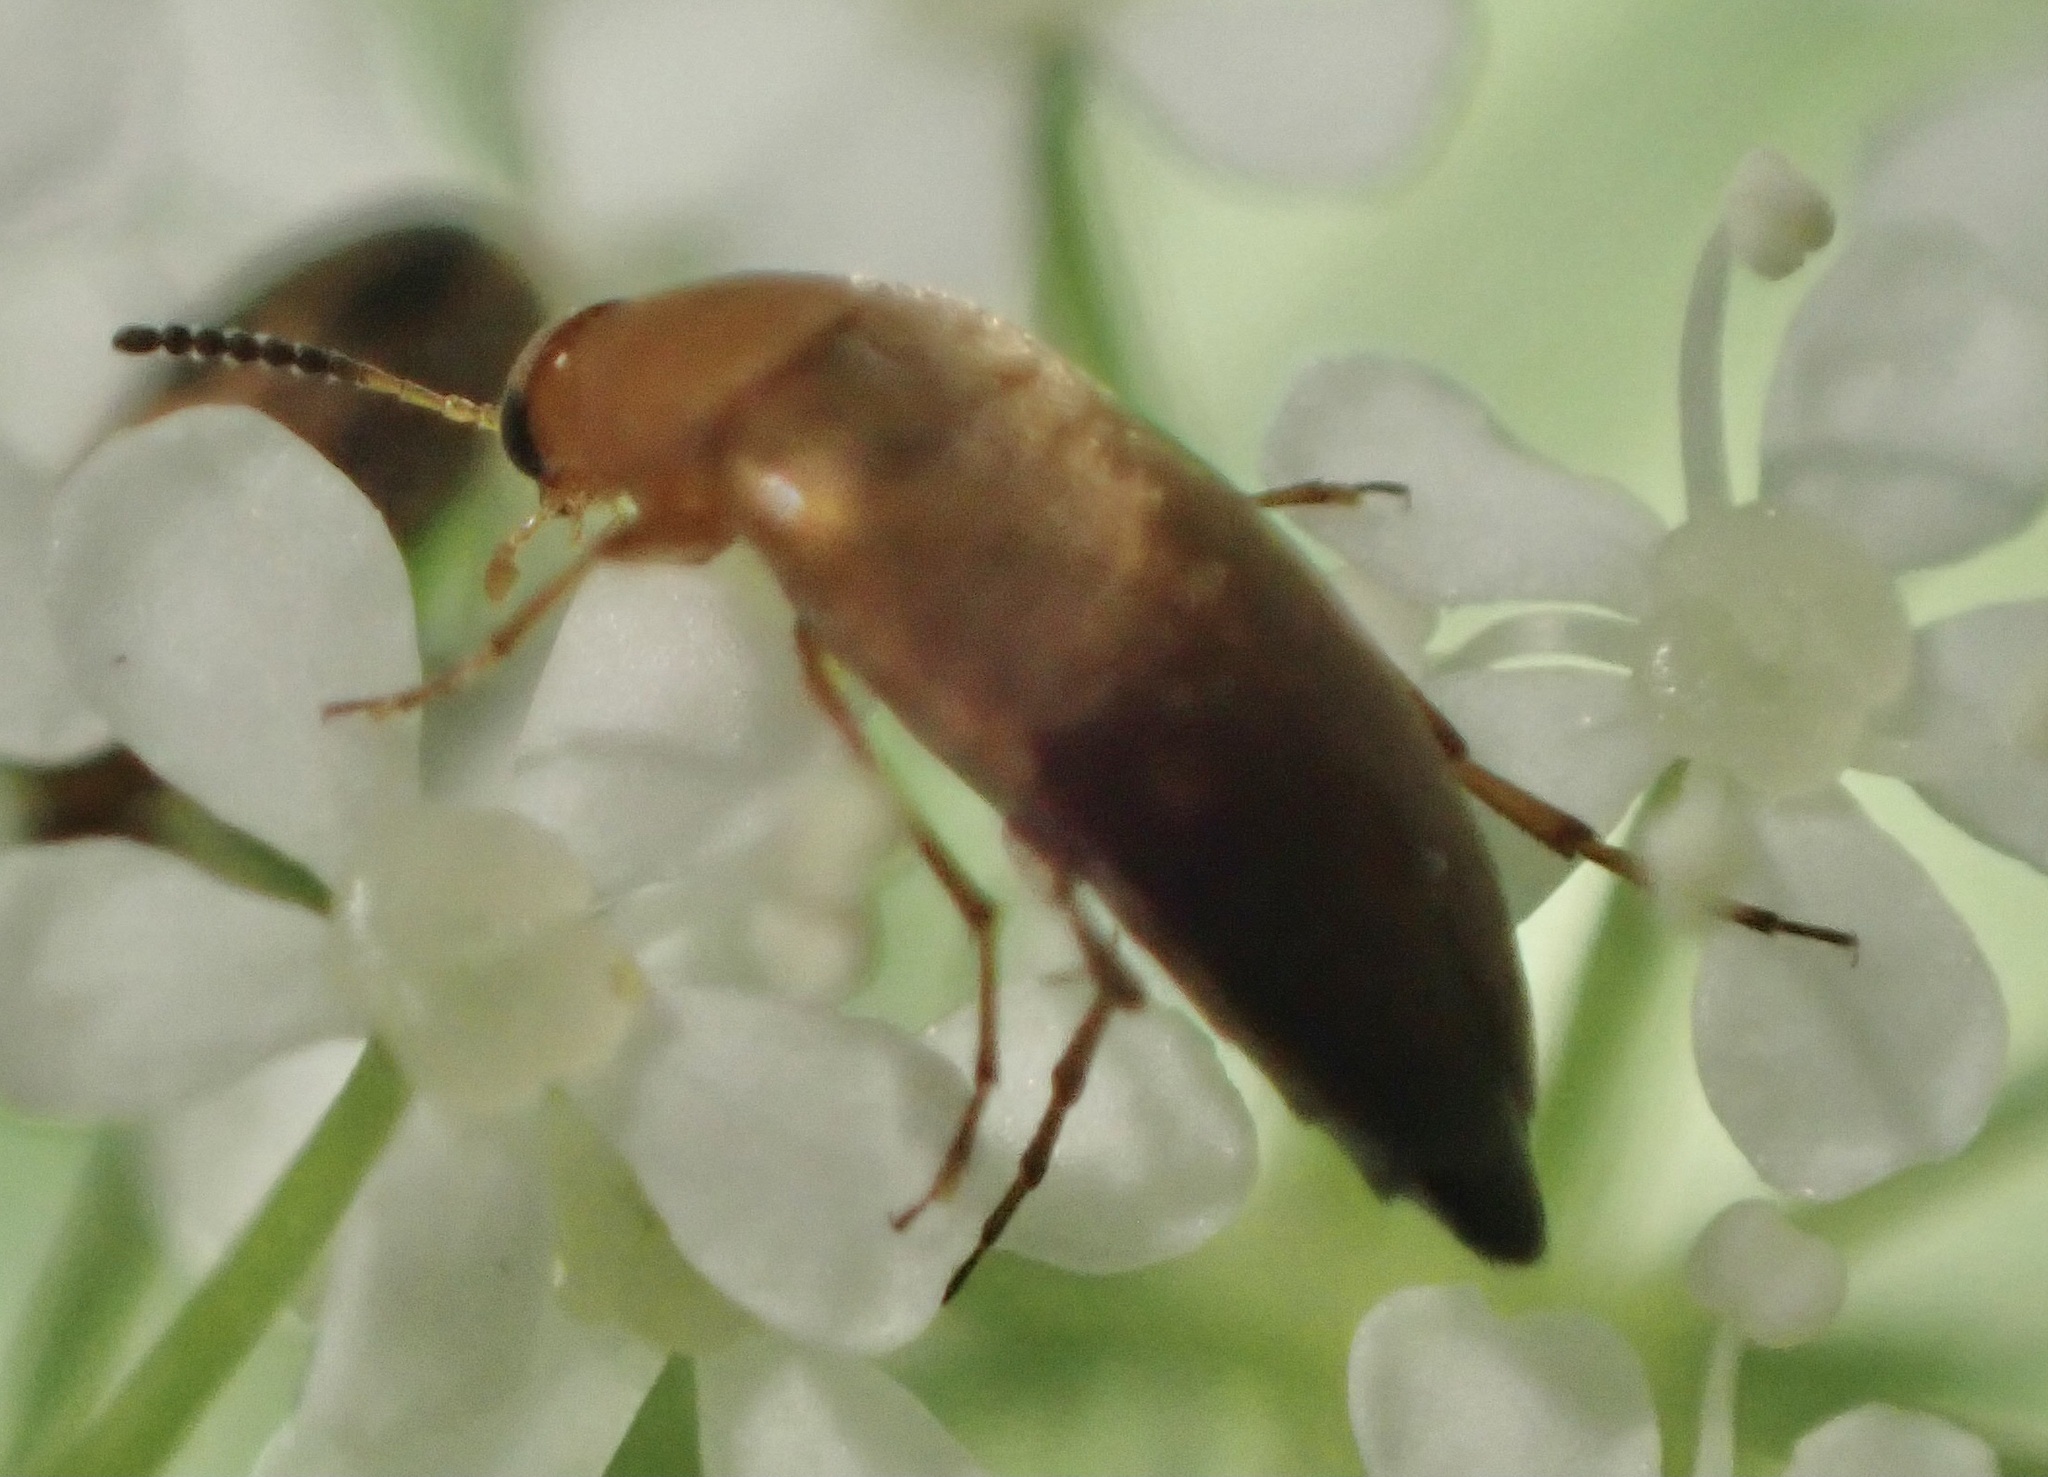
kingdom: Animalia
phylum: Arthropoda
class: Insecta
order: Coleoptera
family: Scraptiidae
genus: Anaspis
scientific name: Anaspis flava
